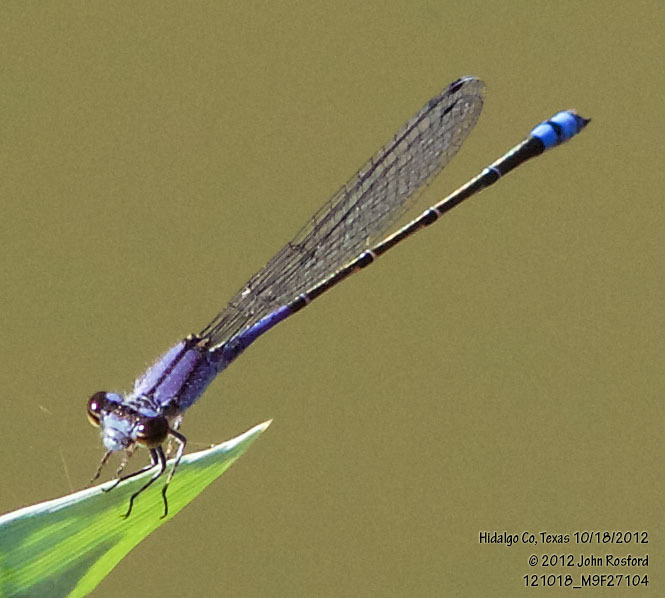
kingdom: Animalia
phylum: Arthropoda
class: Insecta
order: Odonata
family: Coenagrionidae
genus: Enallagma
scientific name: Enallagma novaehispaniae
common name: Neotropical bluet
